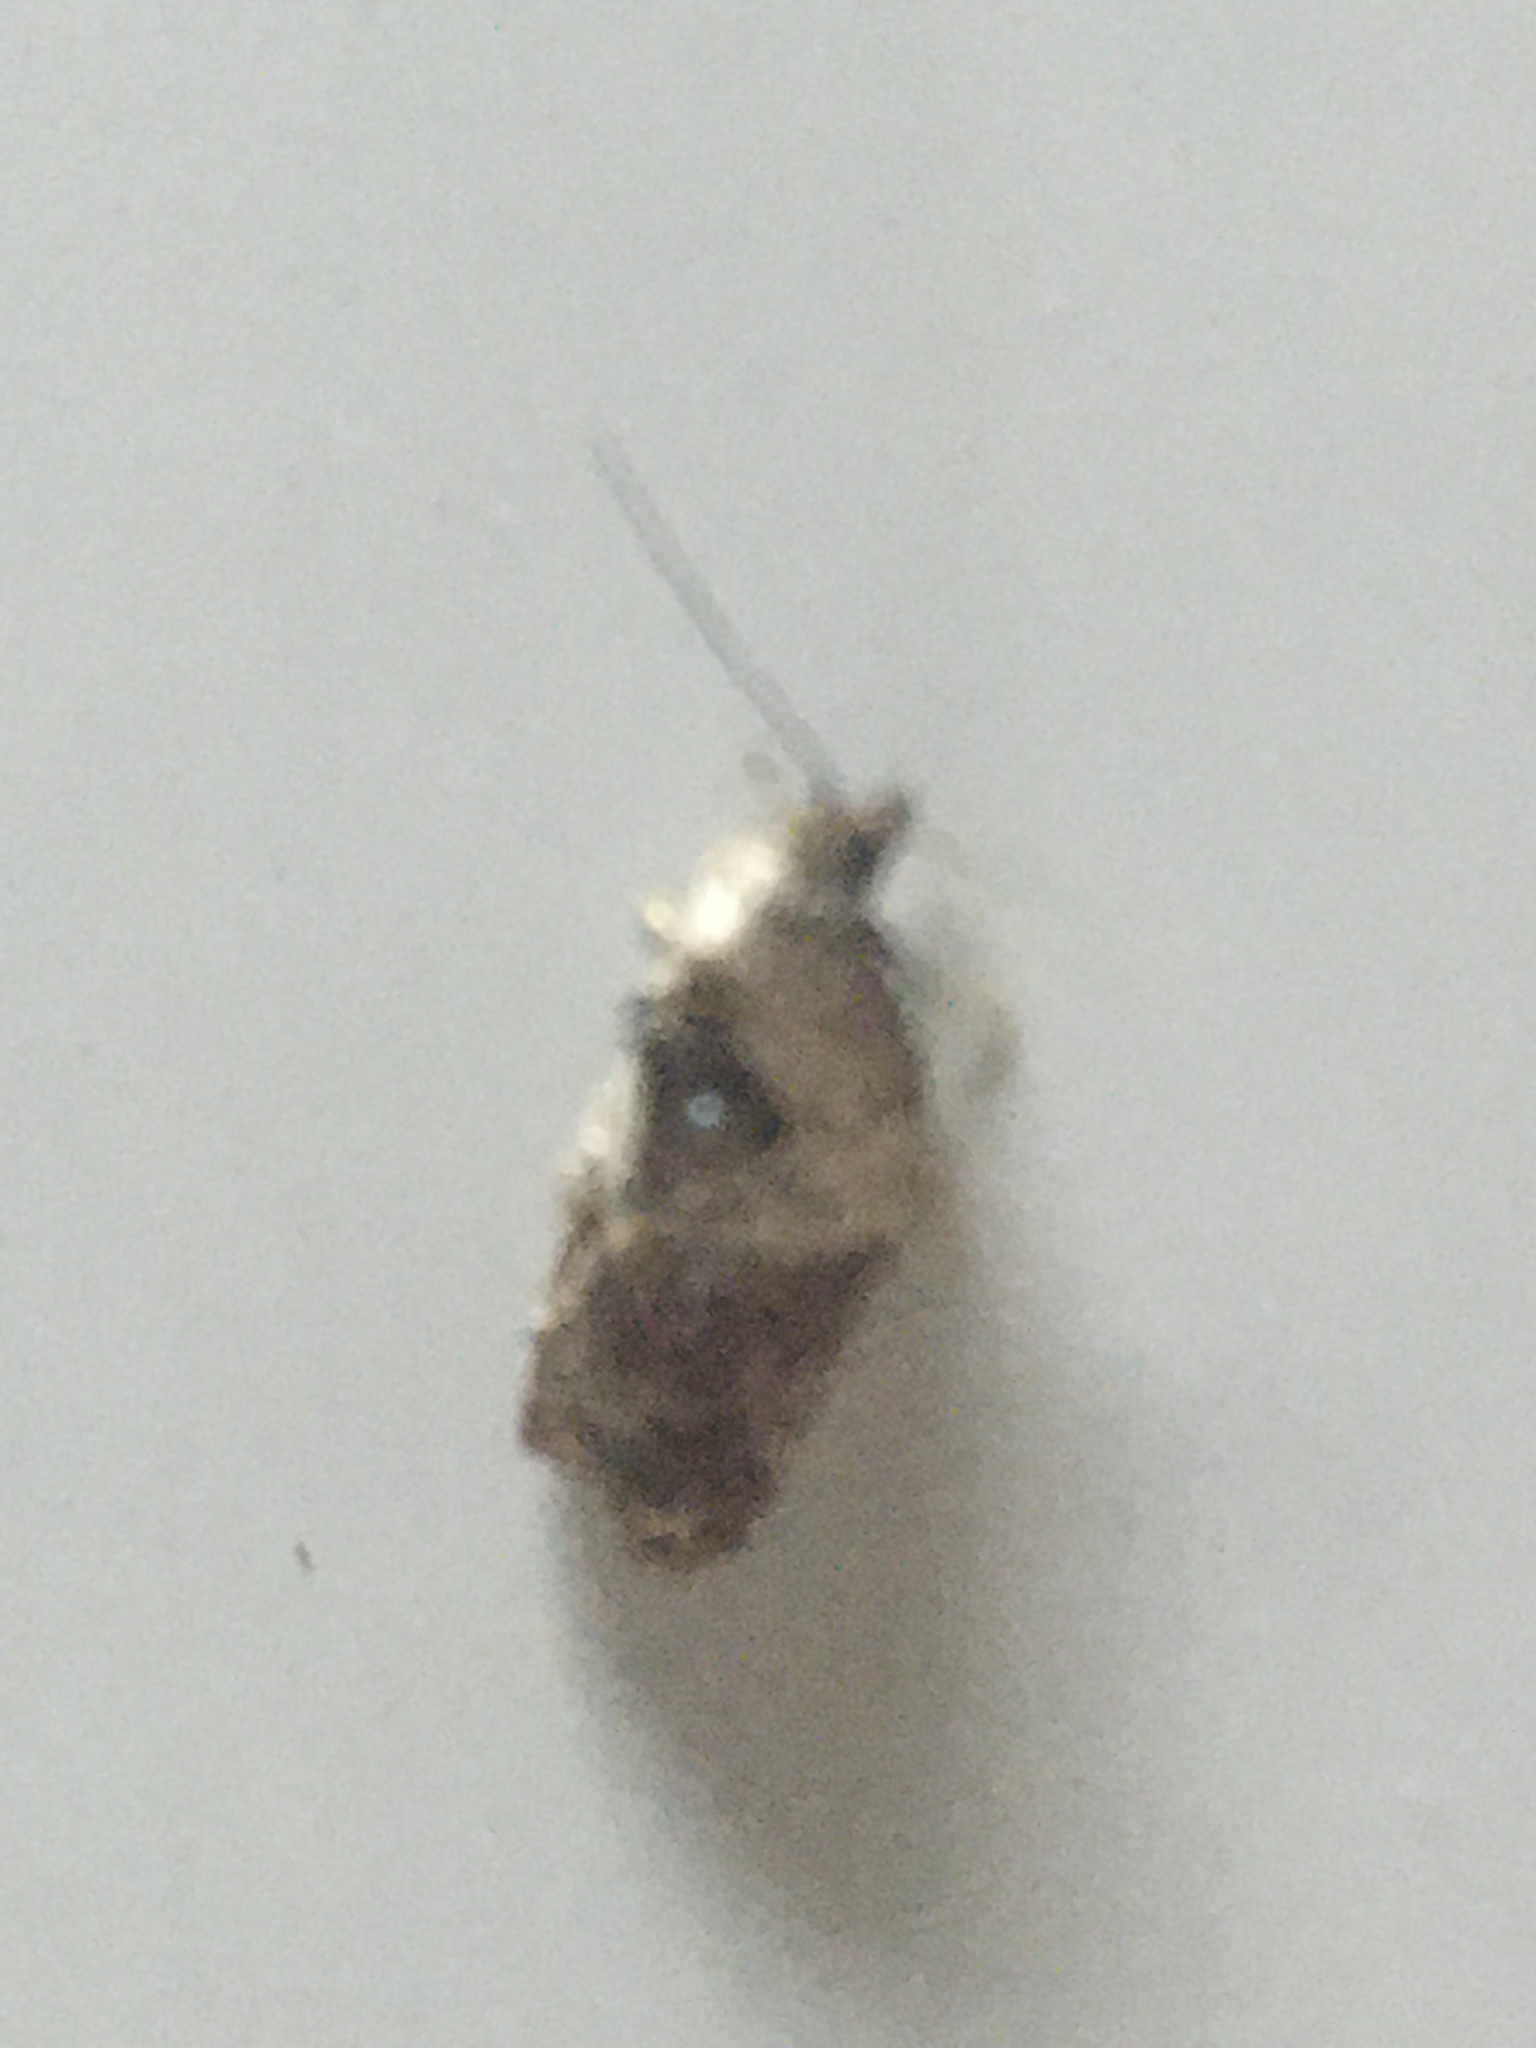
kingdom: Animalia
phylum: Arthropoda
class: Insecta
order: Lepidoptera
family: Tortricidae
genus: Acleris
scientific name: Acleris variegana
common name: Garden rose tortrix
